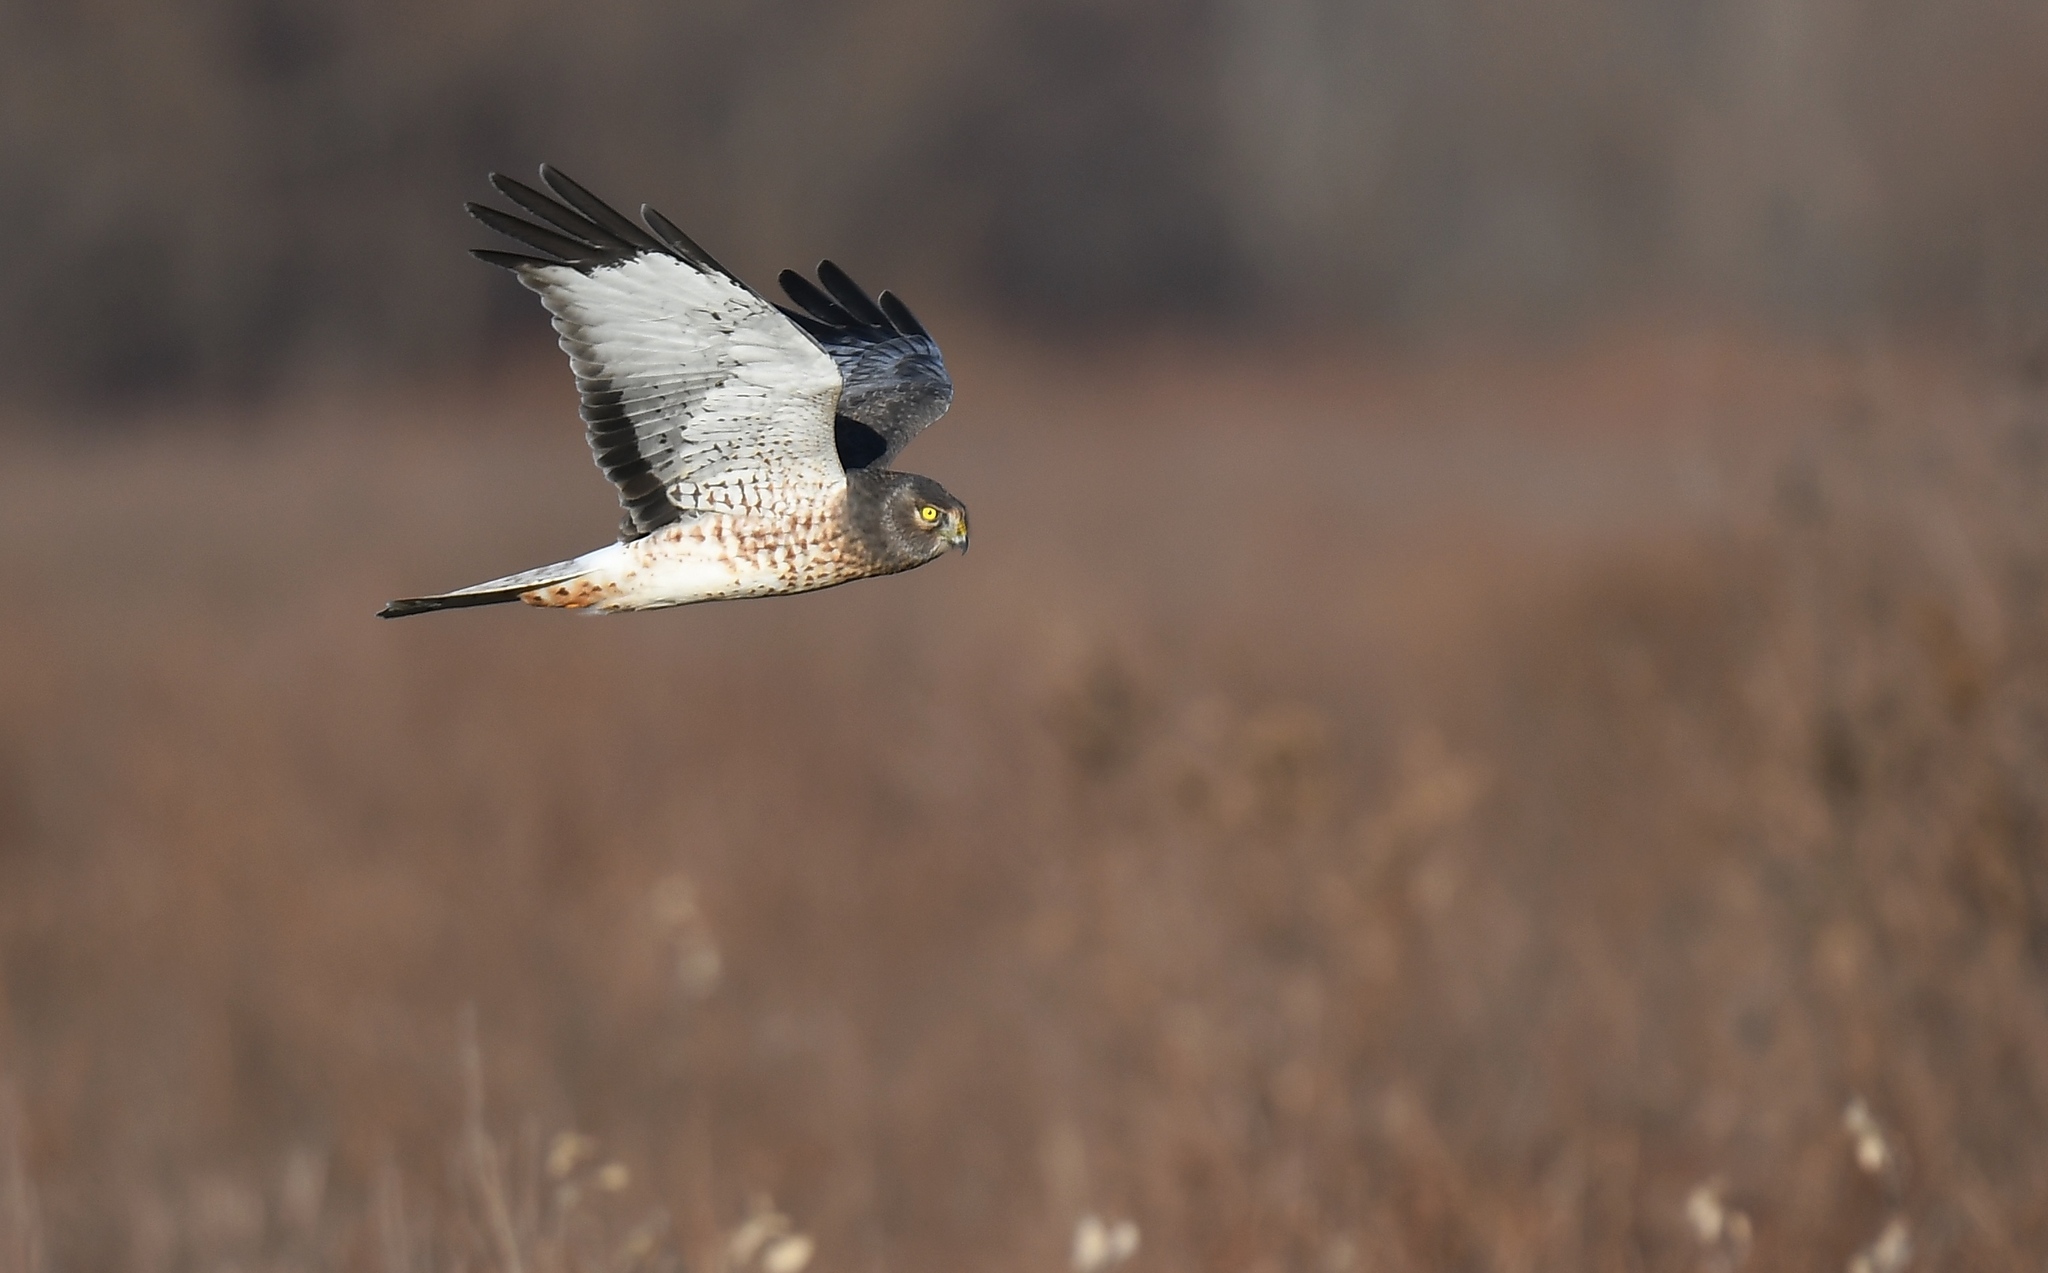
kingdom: Animalia
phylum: Chordata
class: Aves
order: Accipitriformes
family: Accipitridae
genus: Circus
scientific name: Circus cyaneus
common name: Hen harrier
